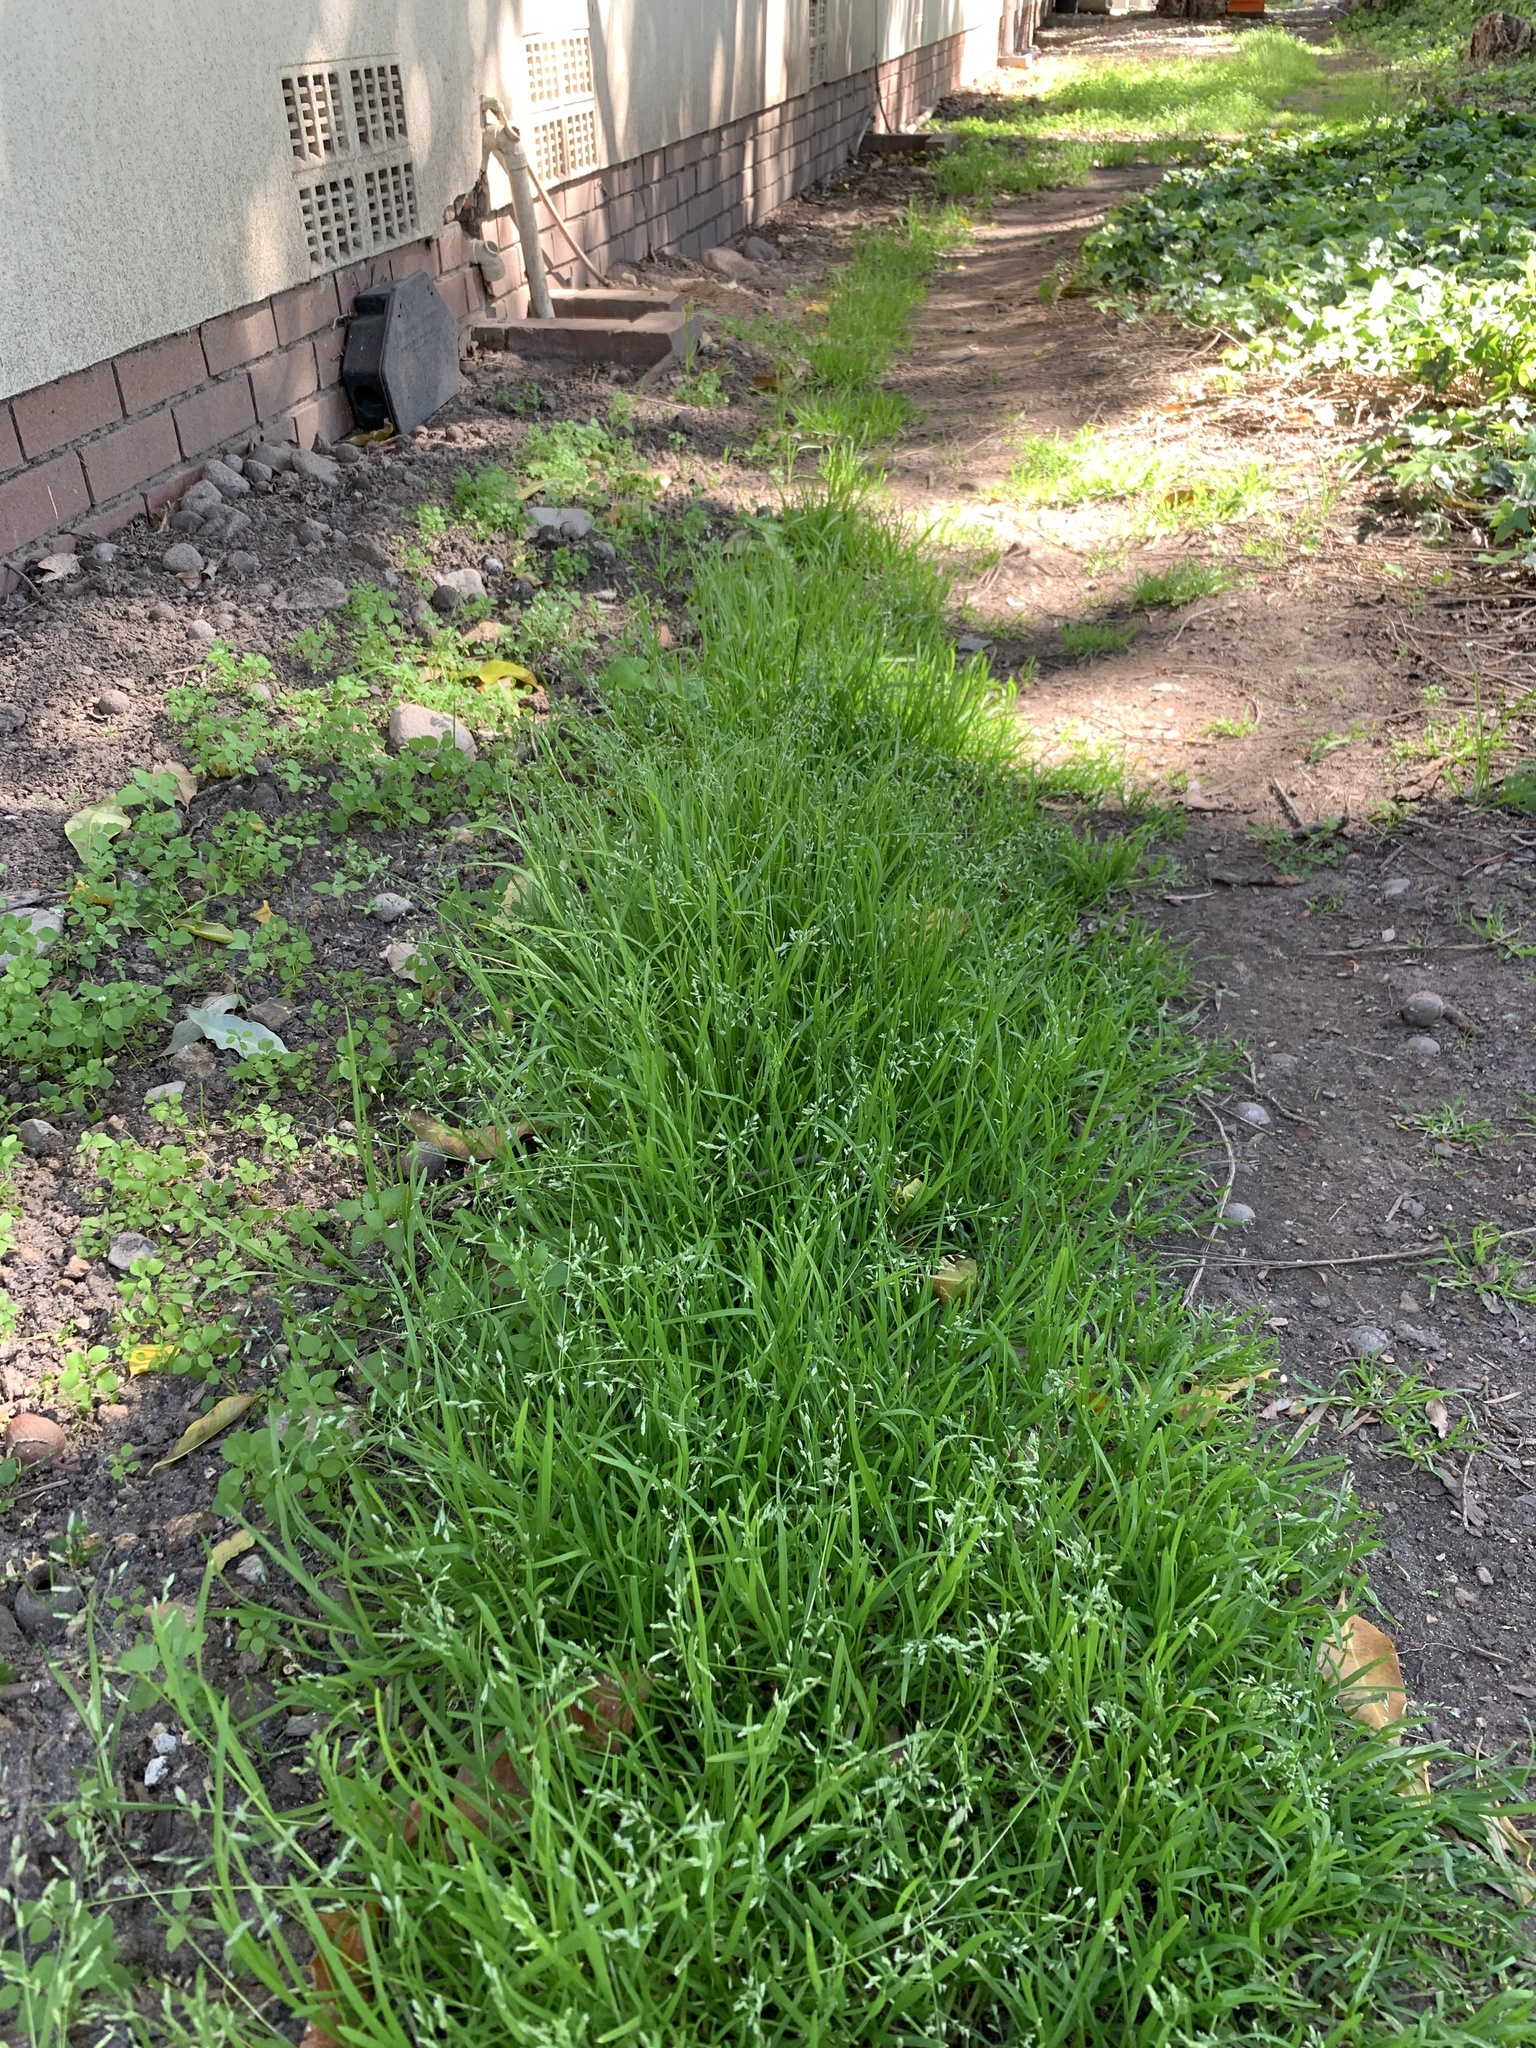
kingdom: Plantae
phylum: Tracheophyta
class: Liliopsida
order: Poales
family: Poaceae
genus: Poa
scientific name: Poa annua
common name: Annual bluegrass
